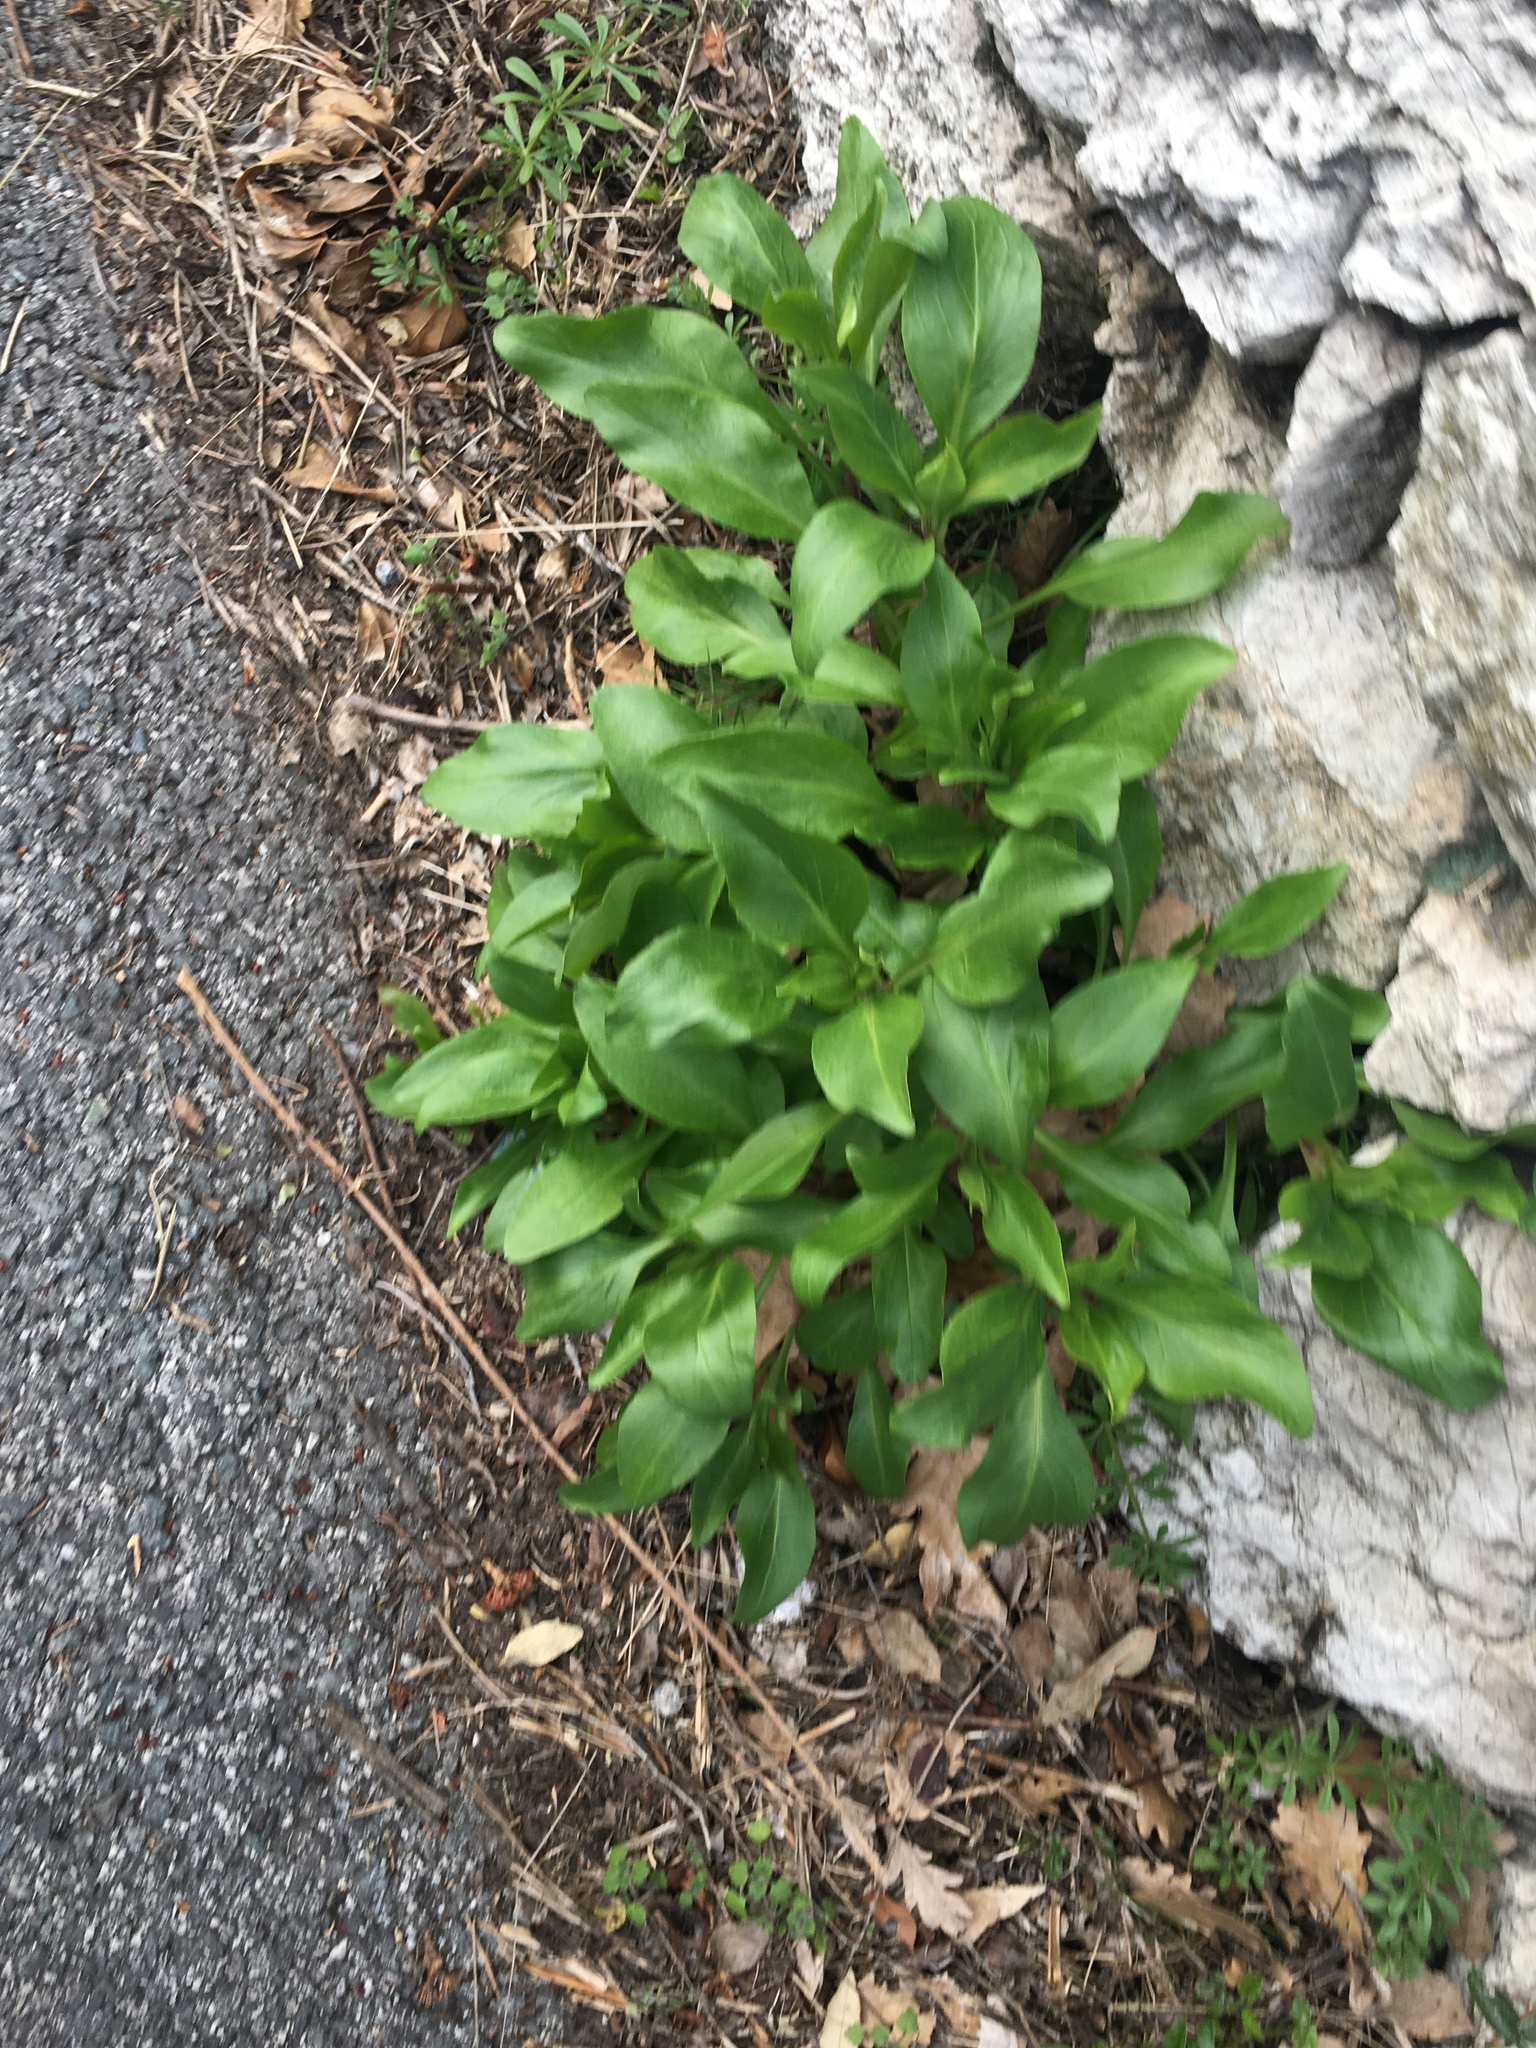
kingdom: Plantae
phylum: Tracheophyta
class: Magnoliopsida
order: Dipsacales
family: Caprifoliaceae
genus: Centranthus
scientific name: Centranthus ruber
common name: Red valerian
